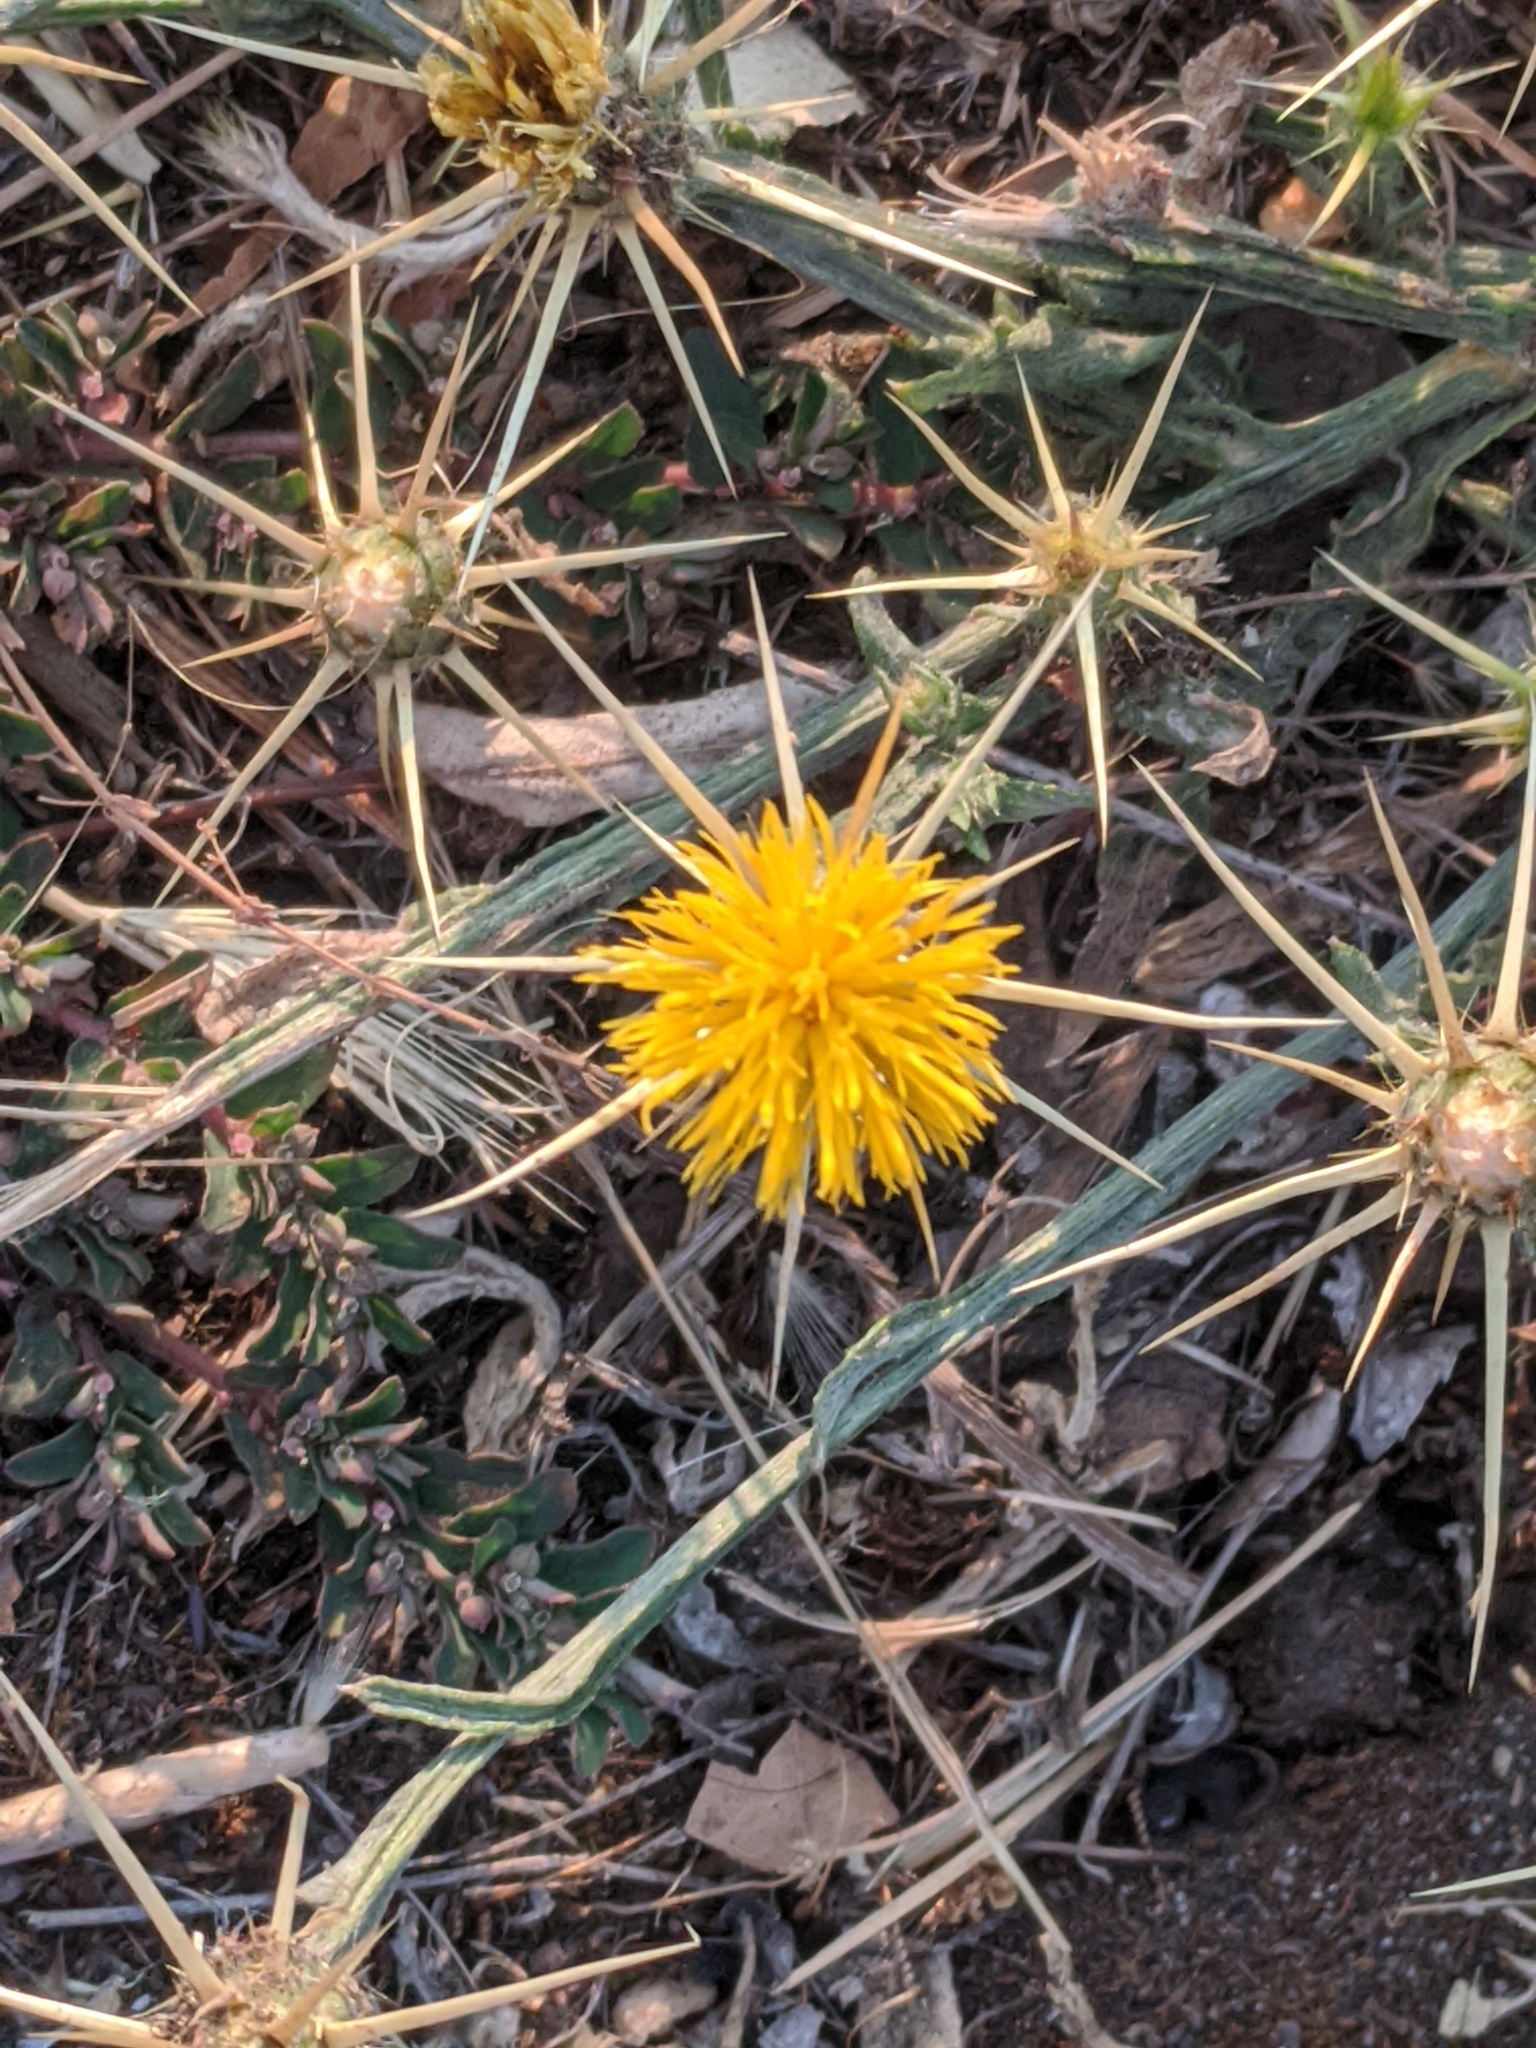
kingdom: Plantae
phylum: Tracheophyta
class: Magnoliopsida
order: Asterales
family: Asteraceae
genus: Centaurea
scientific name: Centaurea solstitialis
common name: Yellow star-thistle
